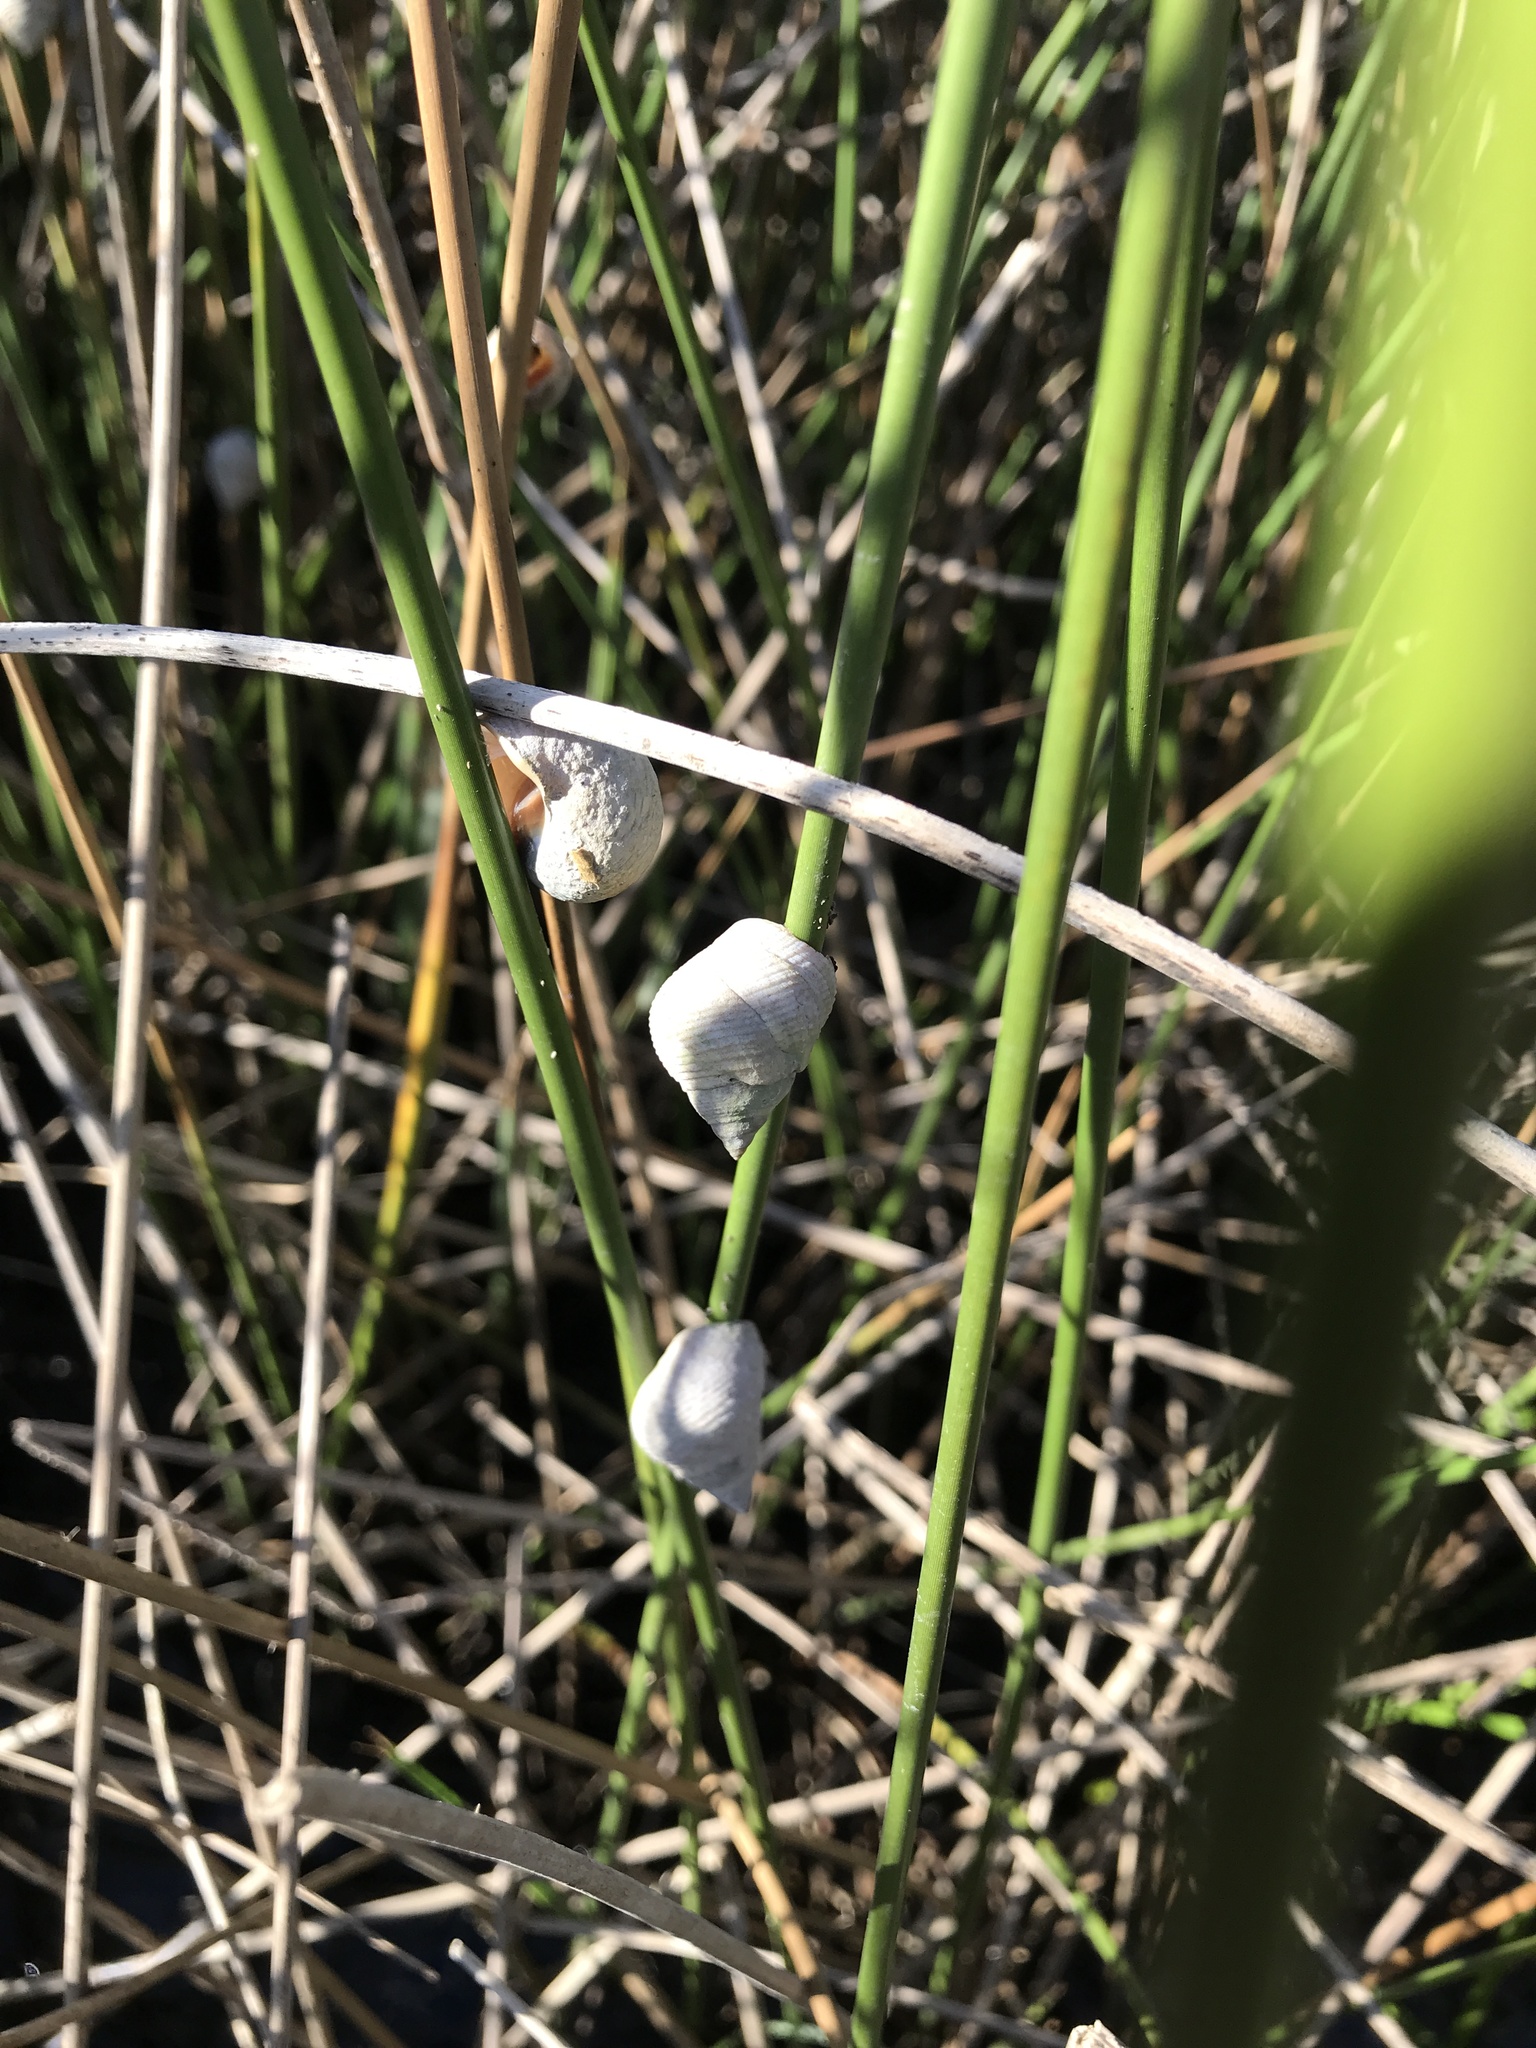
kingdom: Animalia
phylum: Mollusca
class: Gastropoda
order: Littorinimorpha
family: Littorinidae
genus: Littoraria
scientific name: Littoraria irrorata
